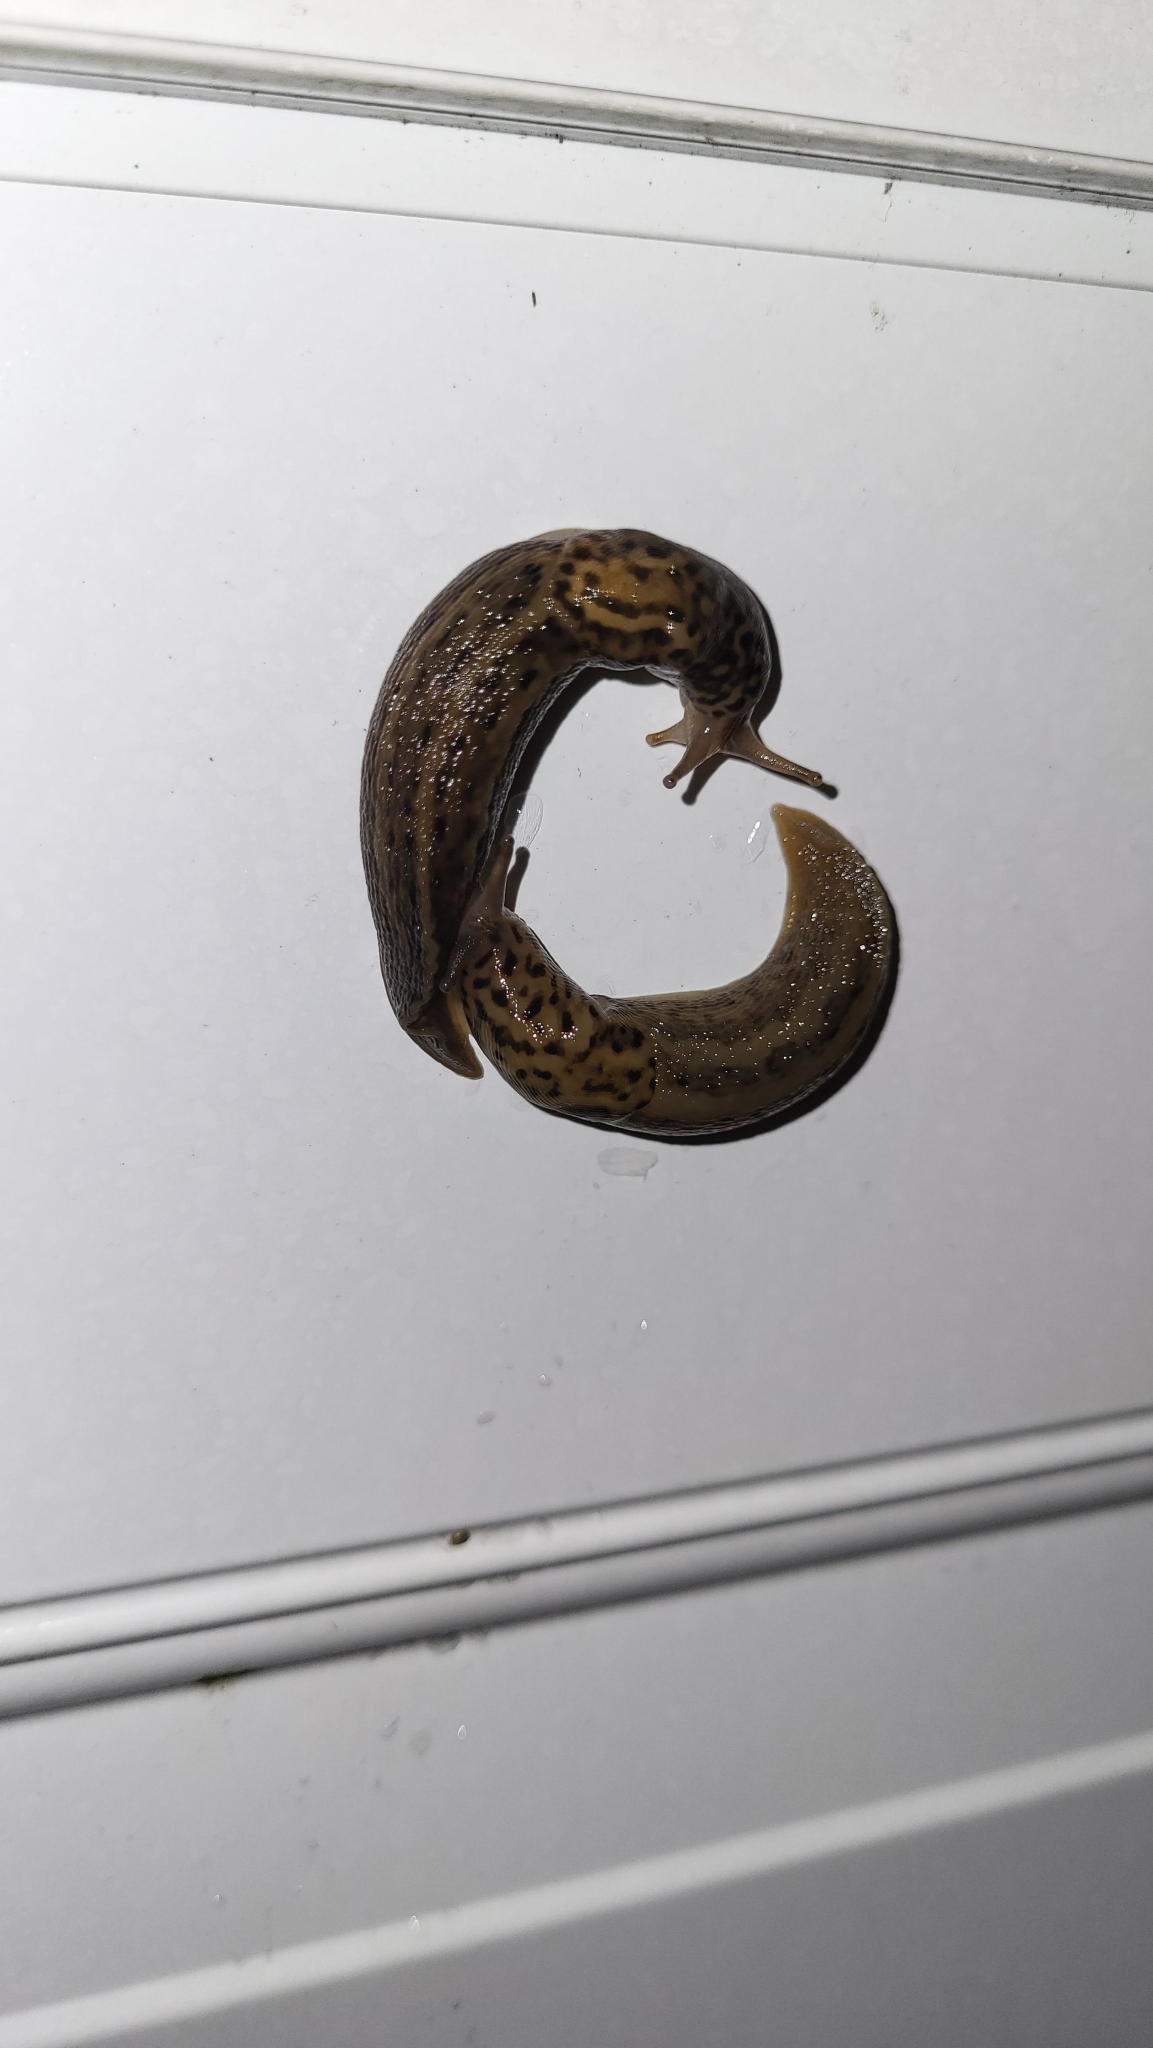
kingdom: Animalia
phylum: Mollusca
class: Gastropoda
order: Stylommatophora
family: Limacidae
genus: Limax
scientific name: Limax maximus
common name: Great grey slug
